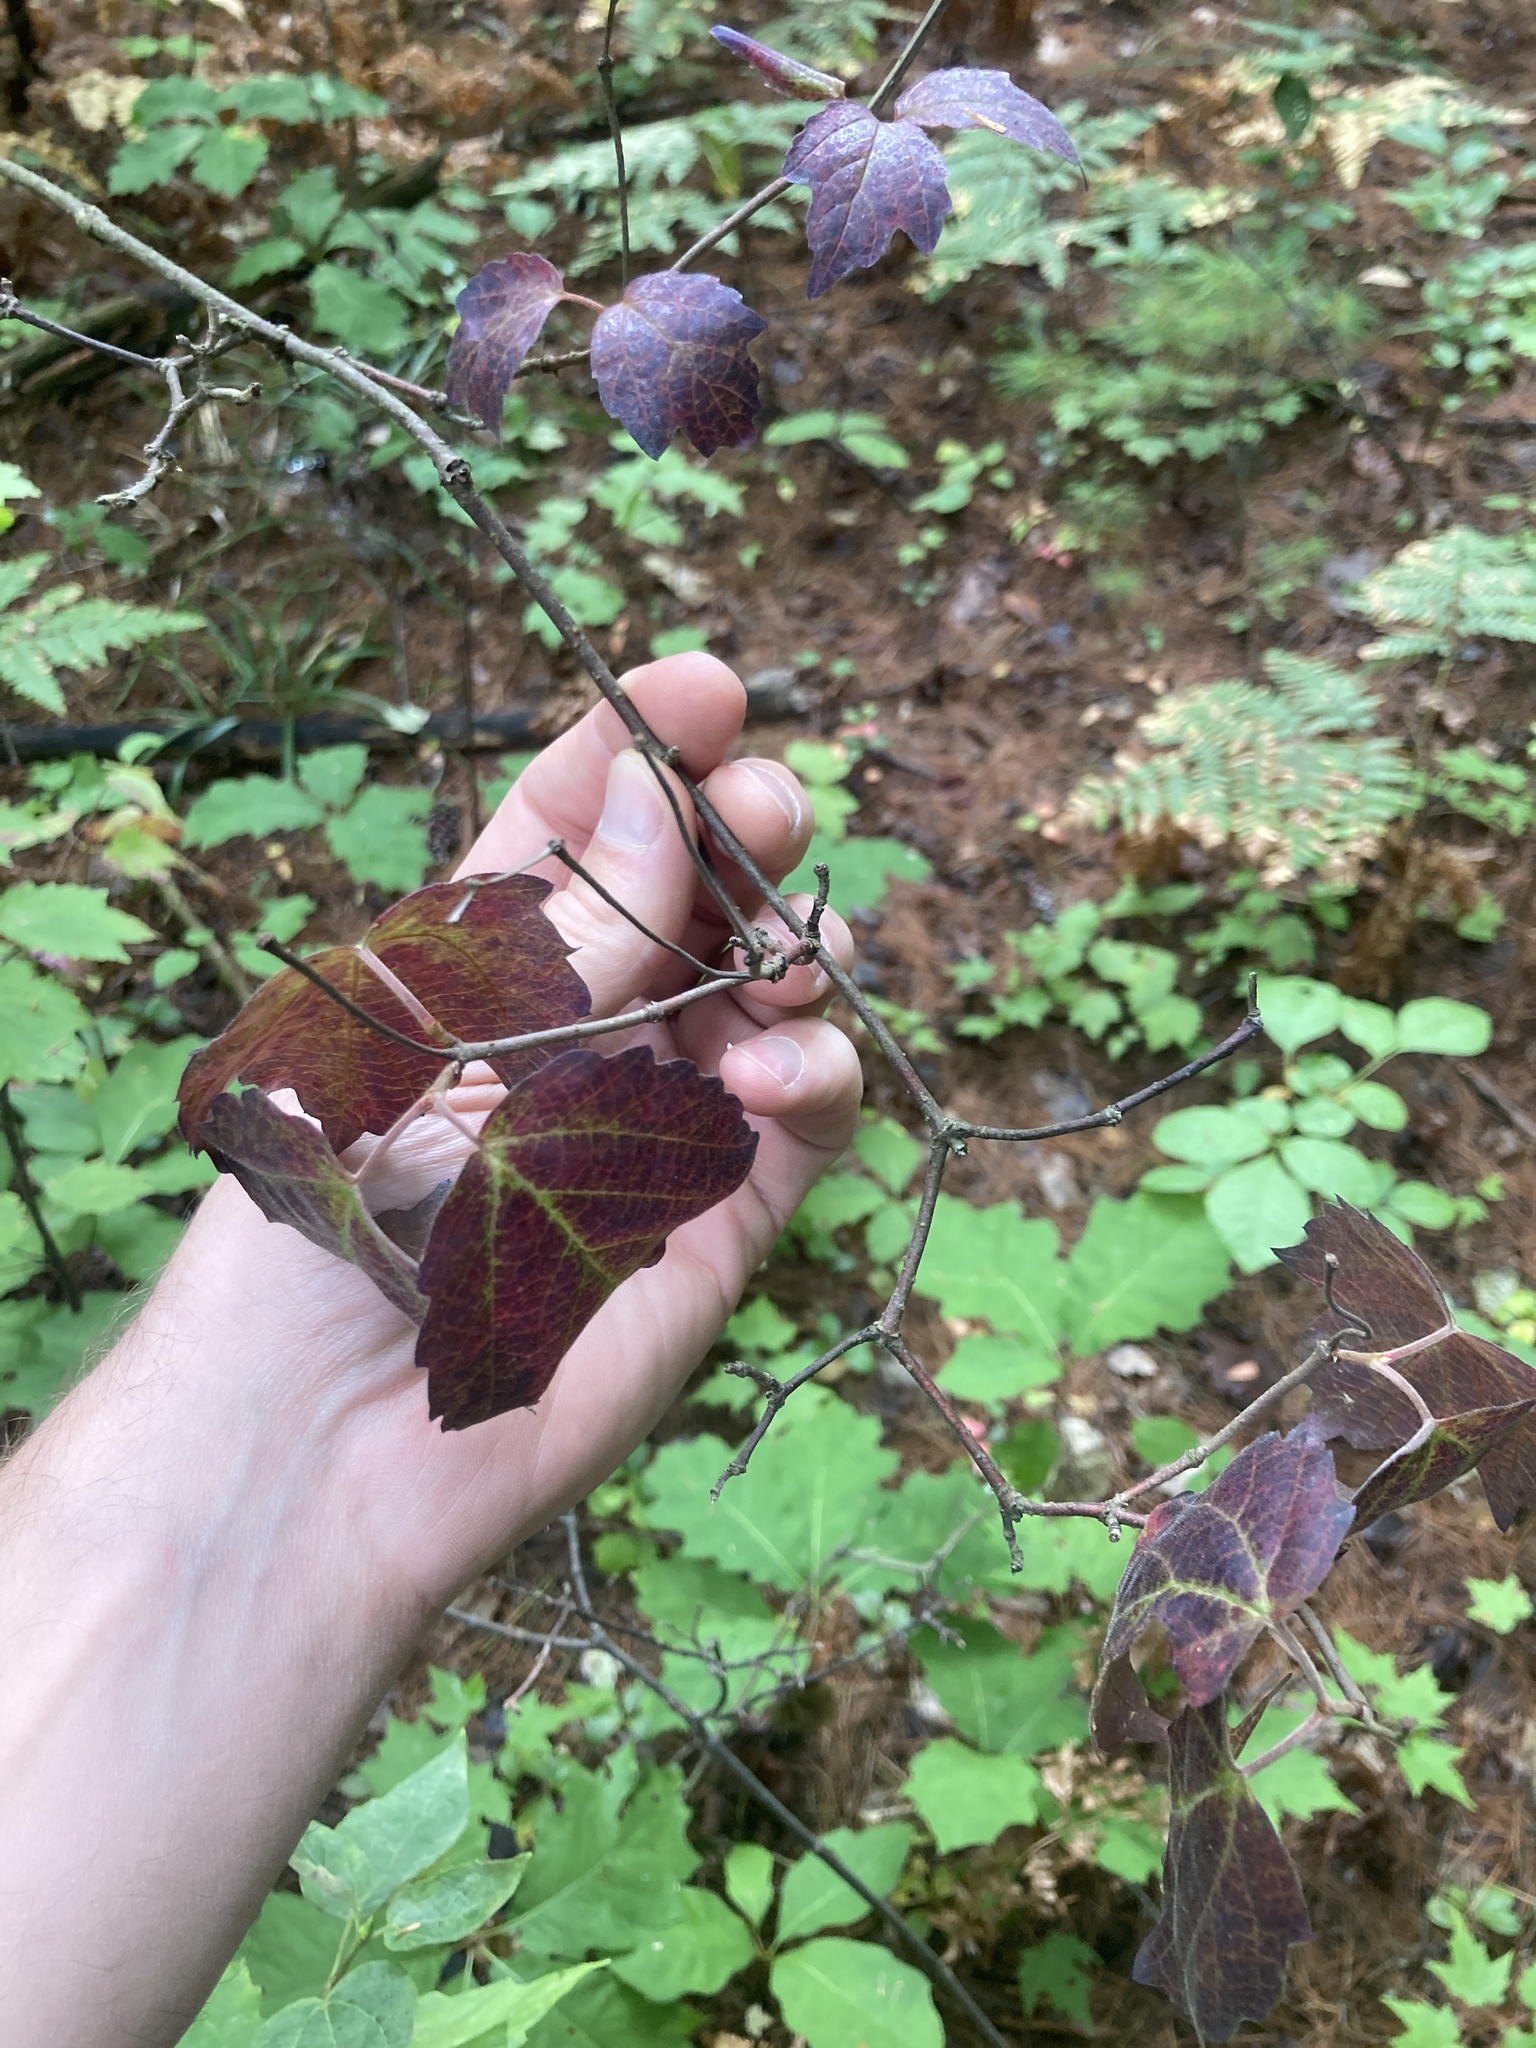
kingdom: Plantae
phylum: Tracheophyta
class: Magnoliopsida
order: Dipsacales
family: Viburnaceae
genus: Viburnum
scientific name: Viburnum acerifolium
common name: Dockmackie
